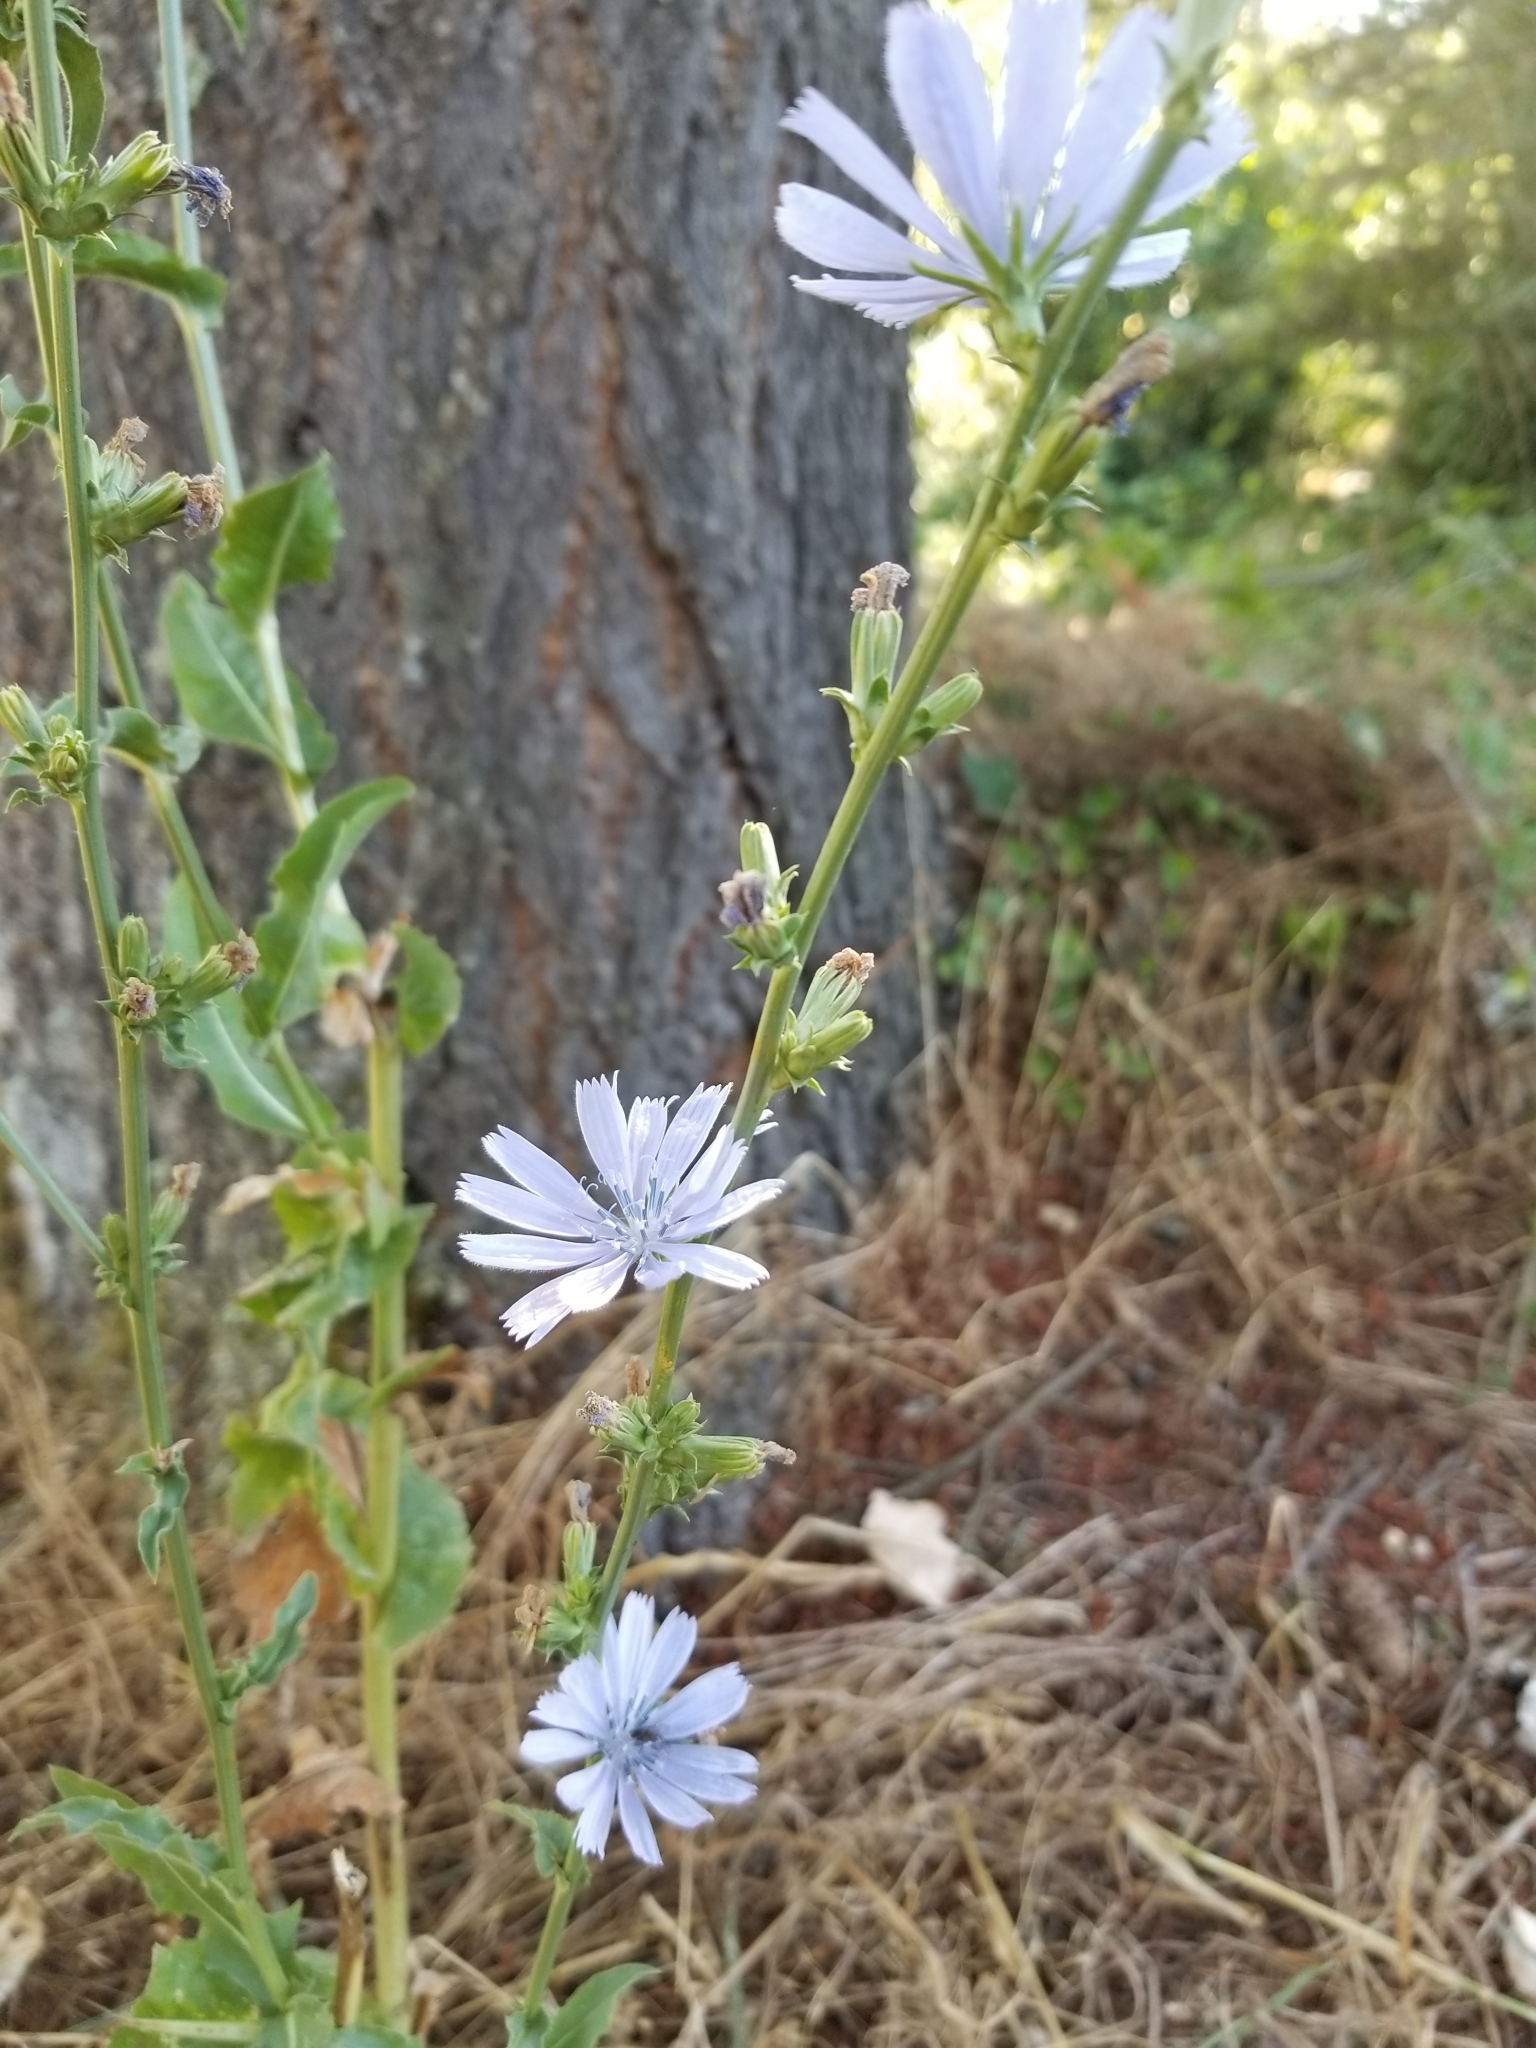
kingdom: Plantae
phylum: Tracheophyta
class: Magnoliopsida
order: Asterales
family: Asteraceae
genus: Cichorium
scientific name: Cichorium intybus
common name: Chicory
